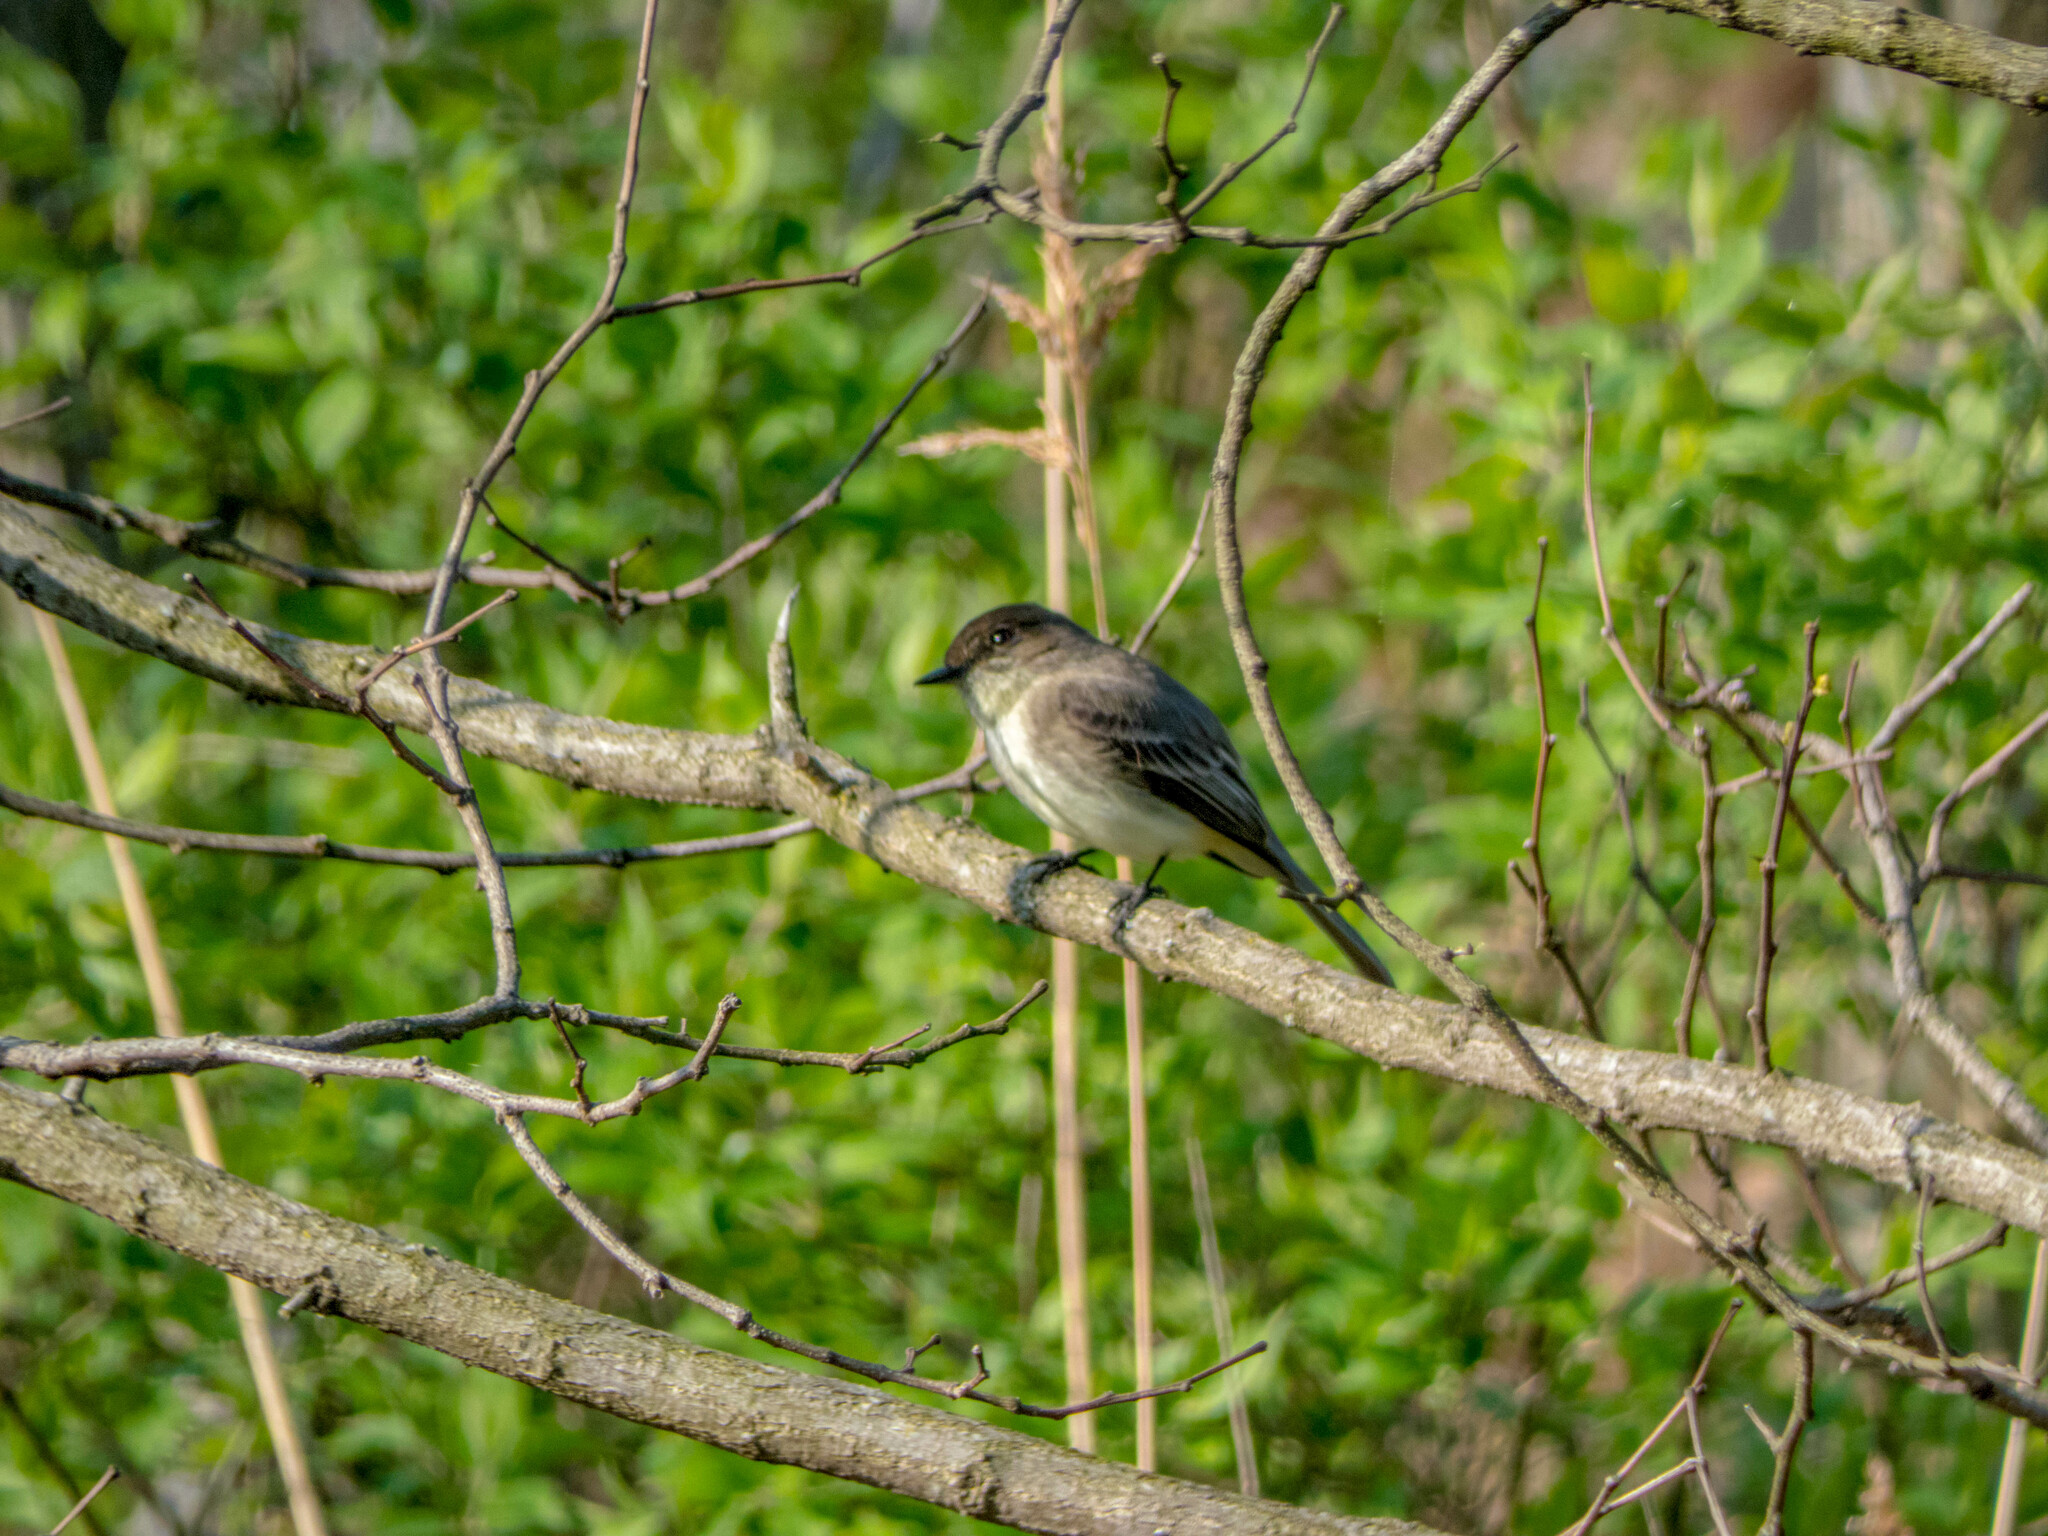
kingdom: Animalia
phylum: Chordata
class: Aves
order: Passeriformes
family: Tyrannidae
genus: Sayornis
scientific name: Sayornis phoebe
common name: Eastern phoebe
